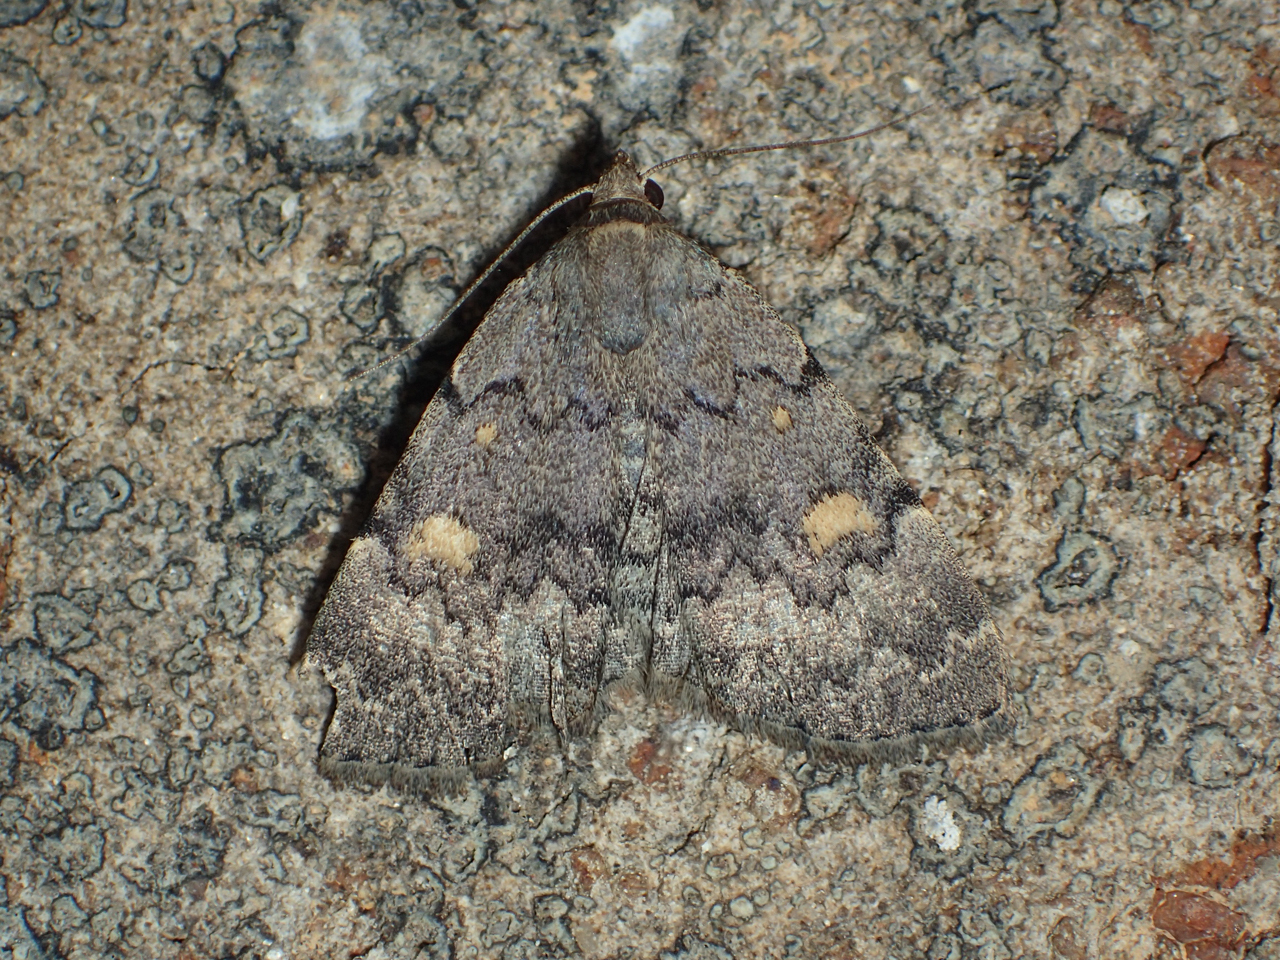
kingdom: Animalia
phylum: Arthropoda
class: Insecta
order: Lepidoptera
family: Erebidae
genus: Idia
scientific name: Idia aemula
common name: Common idia moth
